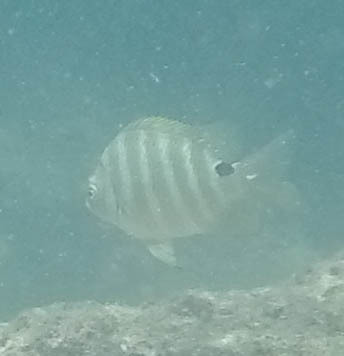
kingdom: Animalia
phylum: Chordata
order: Perciformes
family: Pomacentridae
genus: Abudefduf
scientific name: Abudefduf sordidus
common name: Blackspot sergeant
